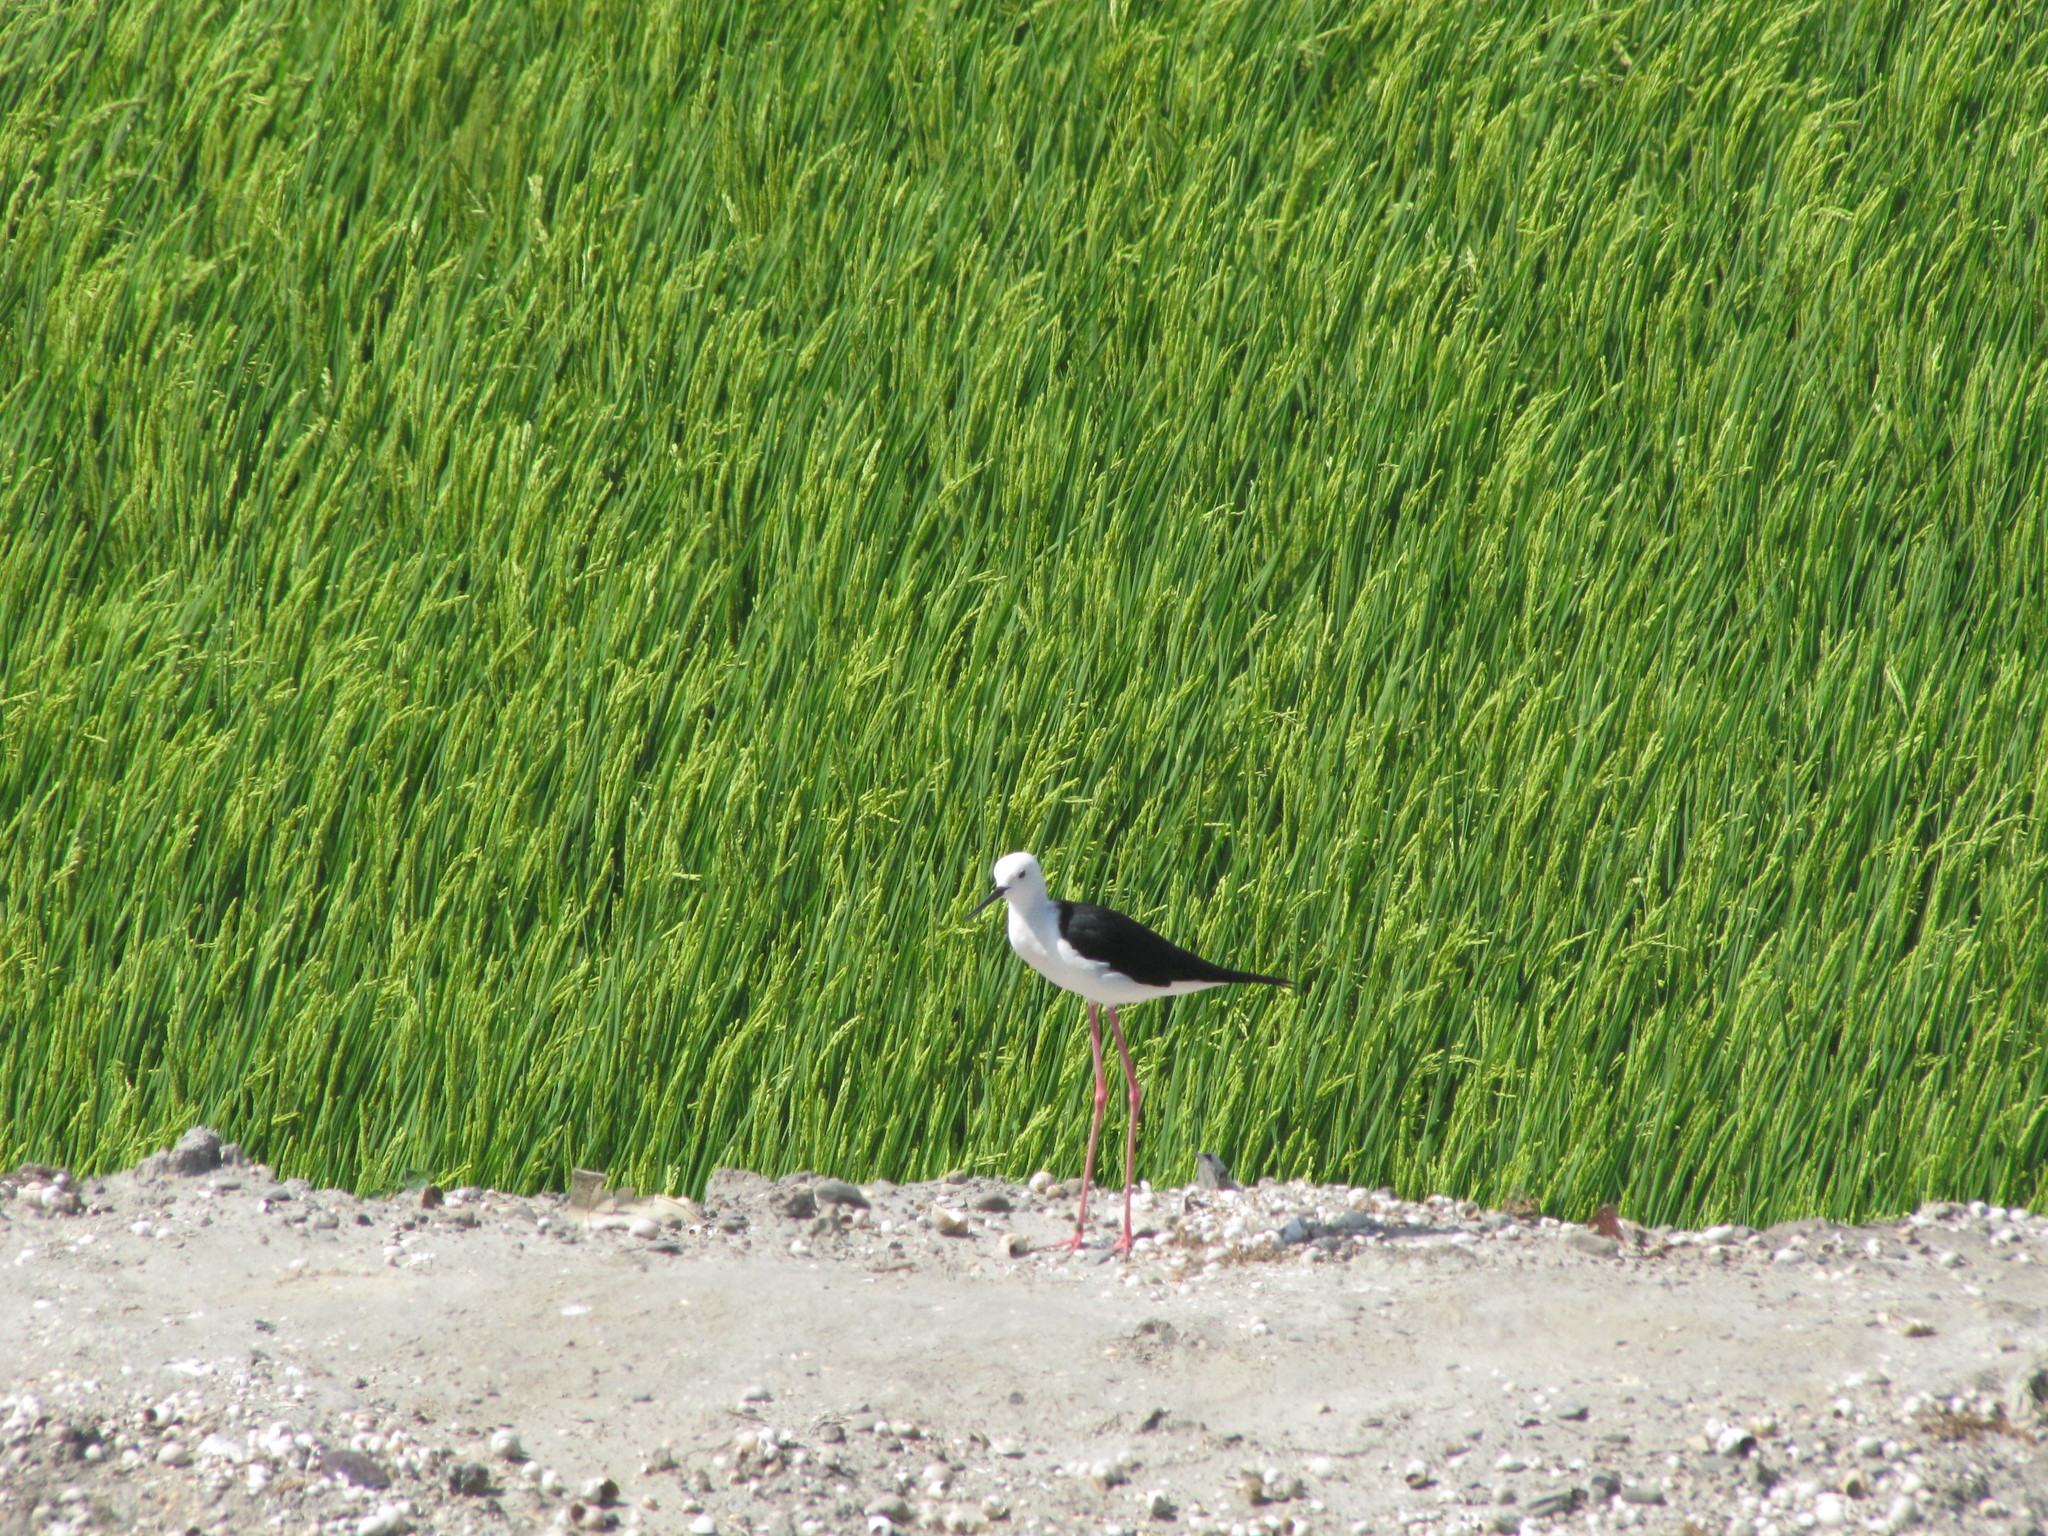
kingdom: Animalia
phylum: Chordata
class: Aves
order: Charadriiformes
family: Recurvirostridae
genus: Himantopus
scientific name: Himantopus himantopus
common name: Black-winged stilt
